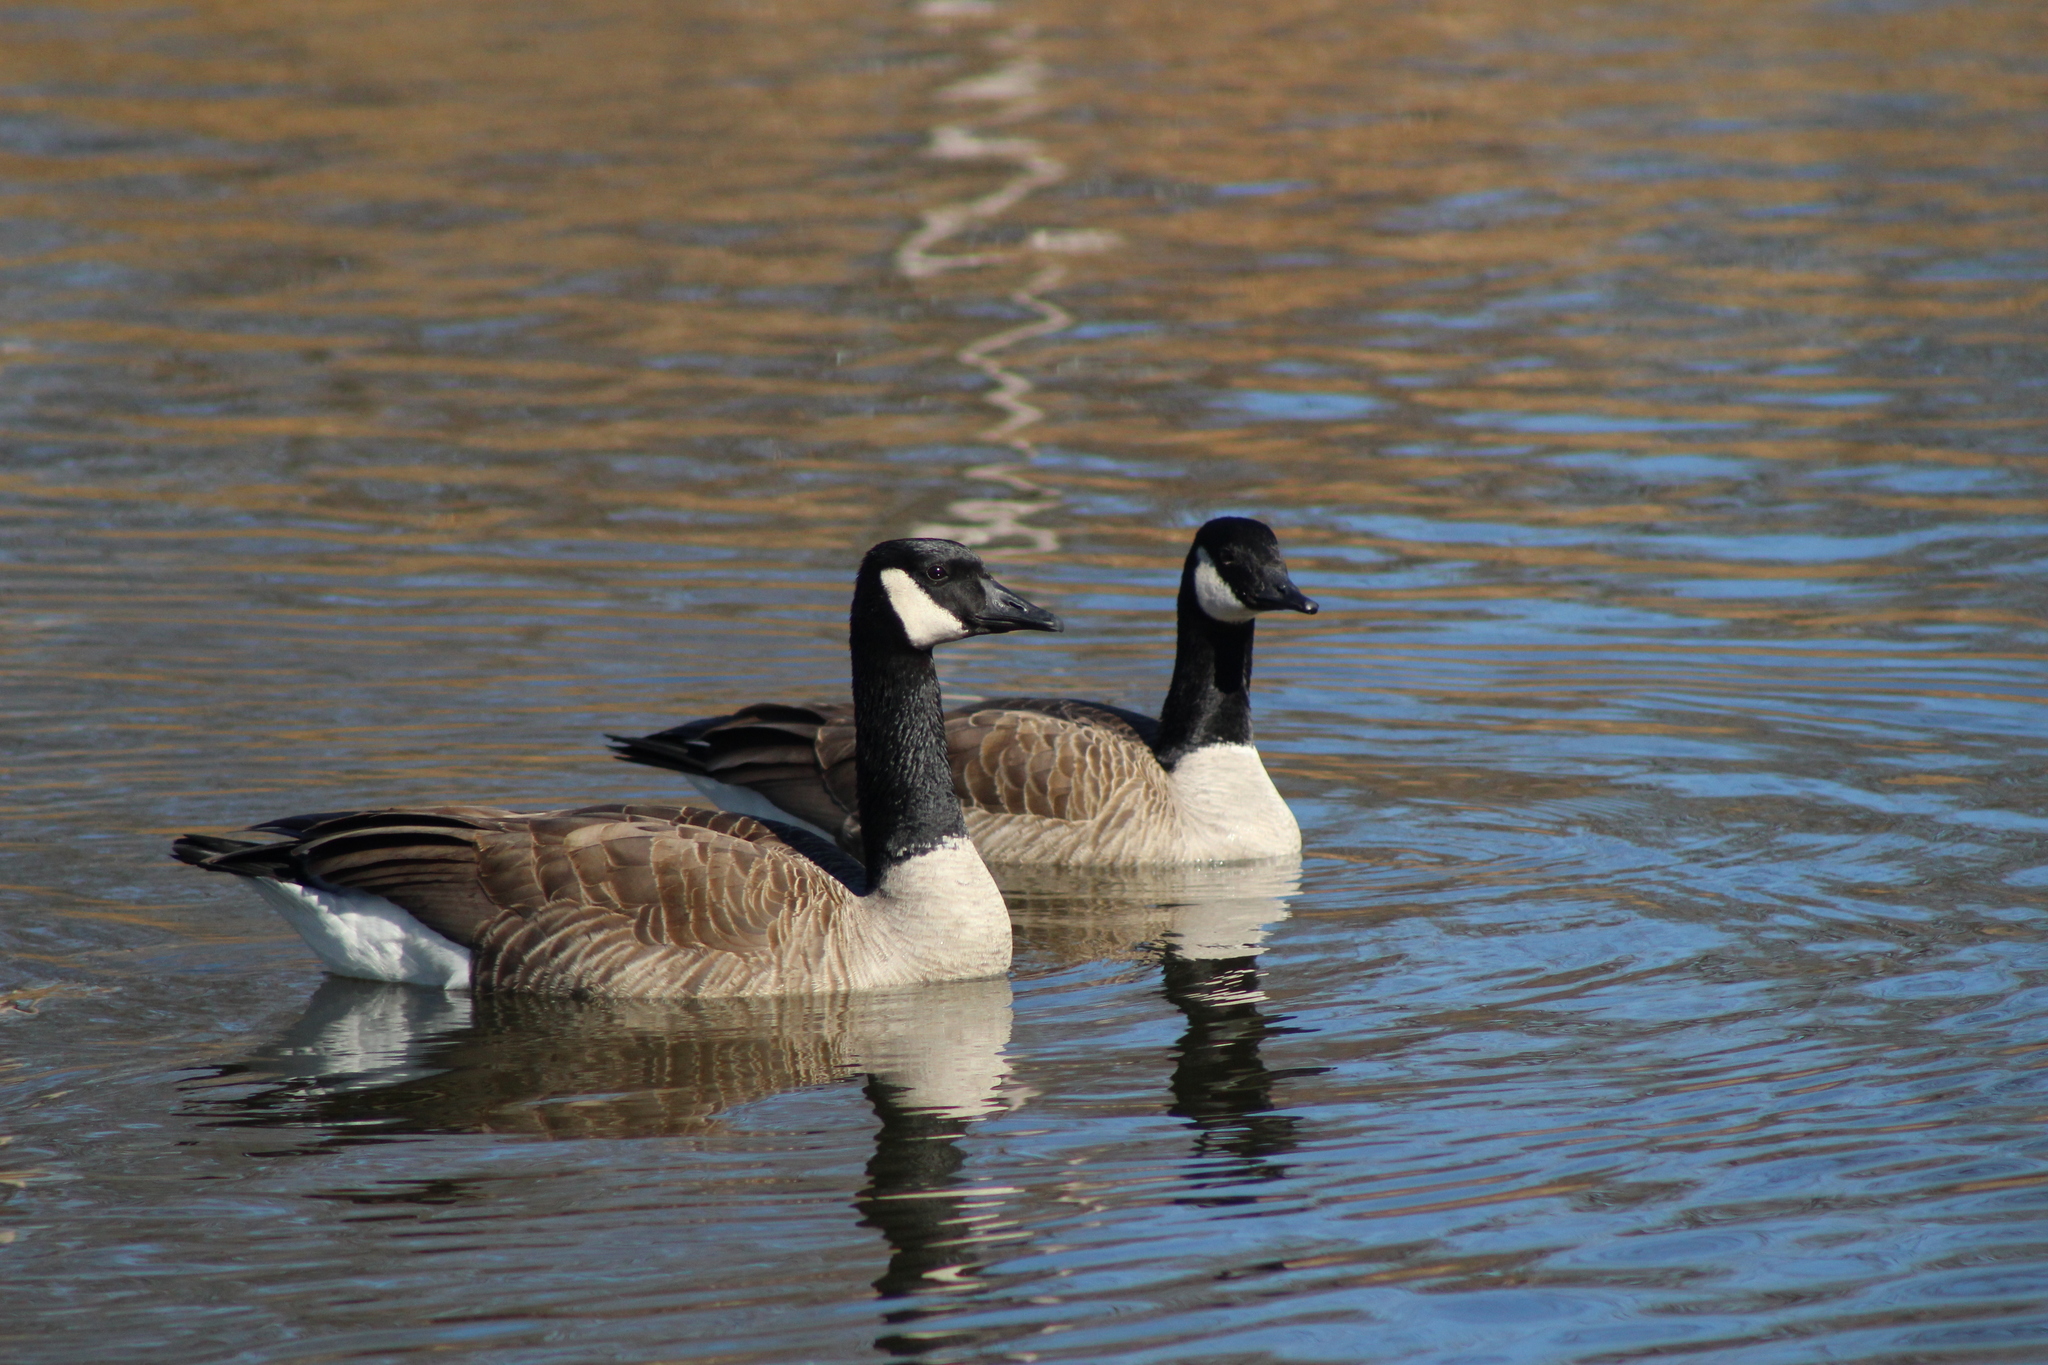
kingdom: Animalia
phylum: Chordata
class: Aves
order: Anseriformes
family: Anatidae
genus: Branta
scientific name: Branta canadensis
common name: Canada goose
